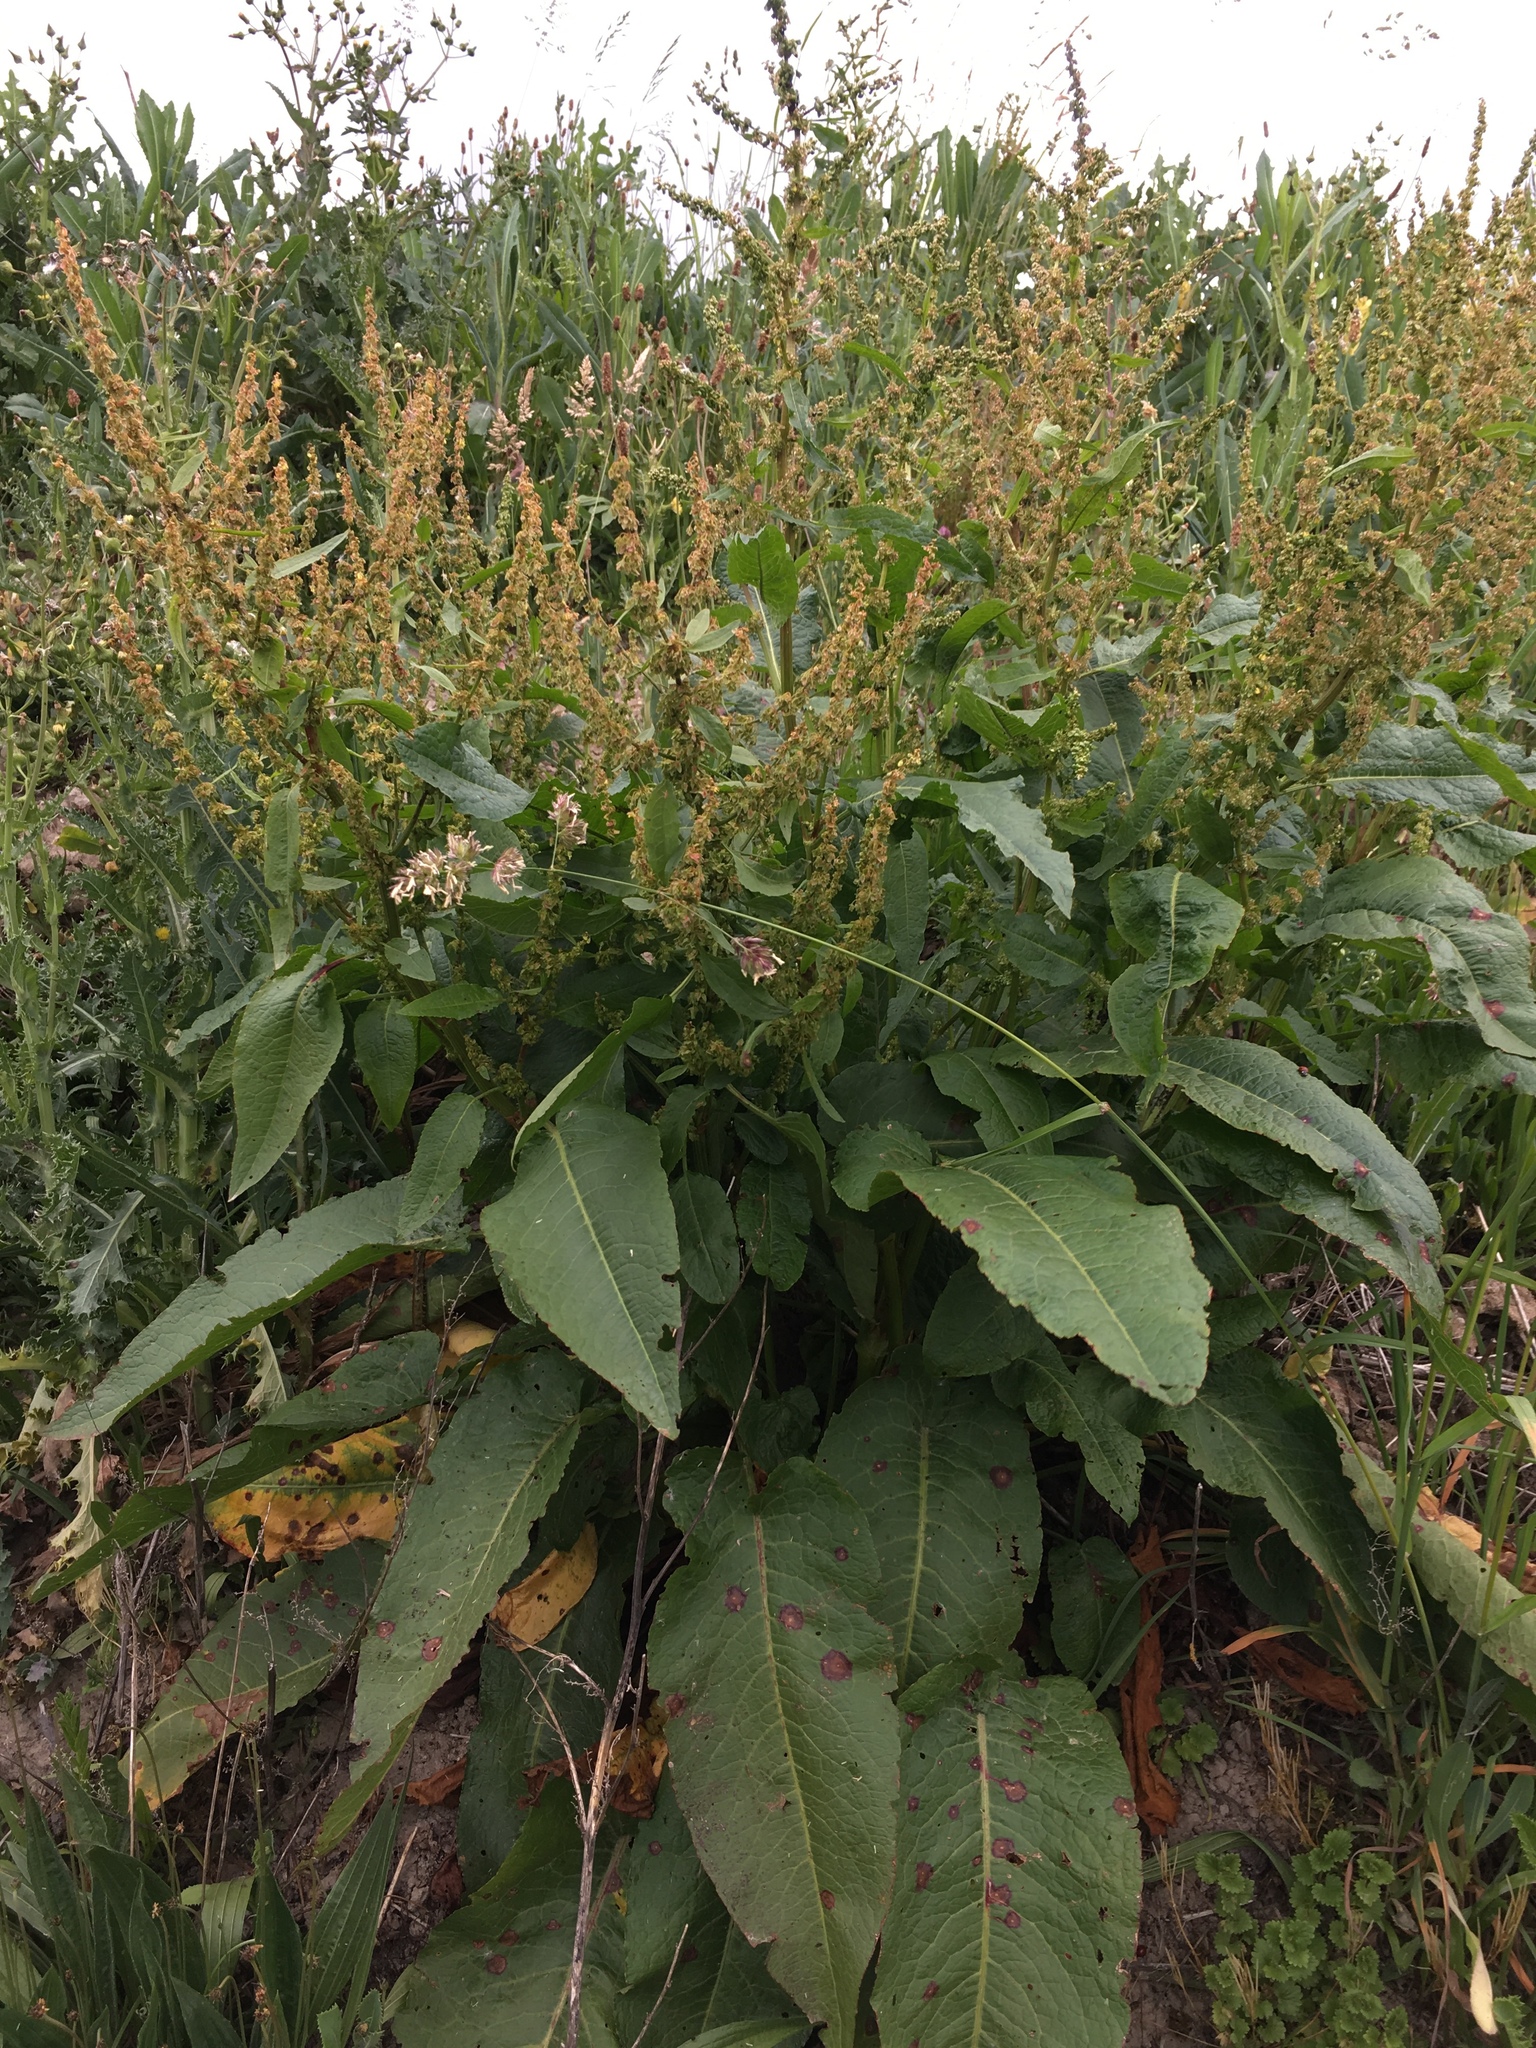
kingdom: Plantae
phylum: Tracheophyta
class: Magnoliopsida
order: Caryophyllales
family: Polygonaceae
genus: Rumex
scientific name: Rumex obtusifolius
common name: Bitter dock
